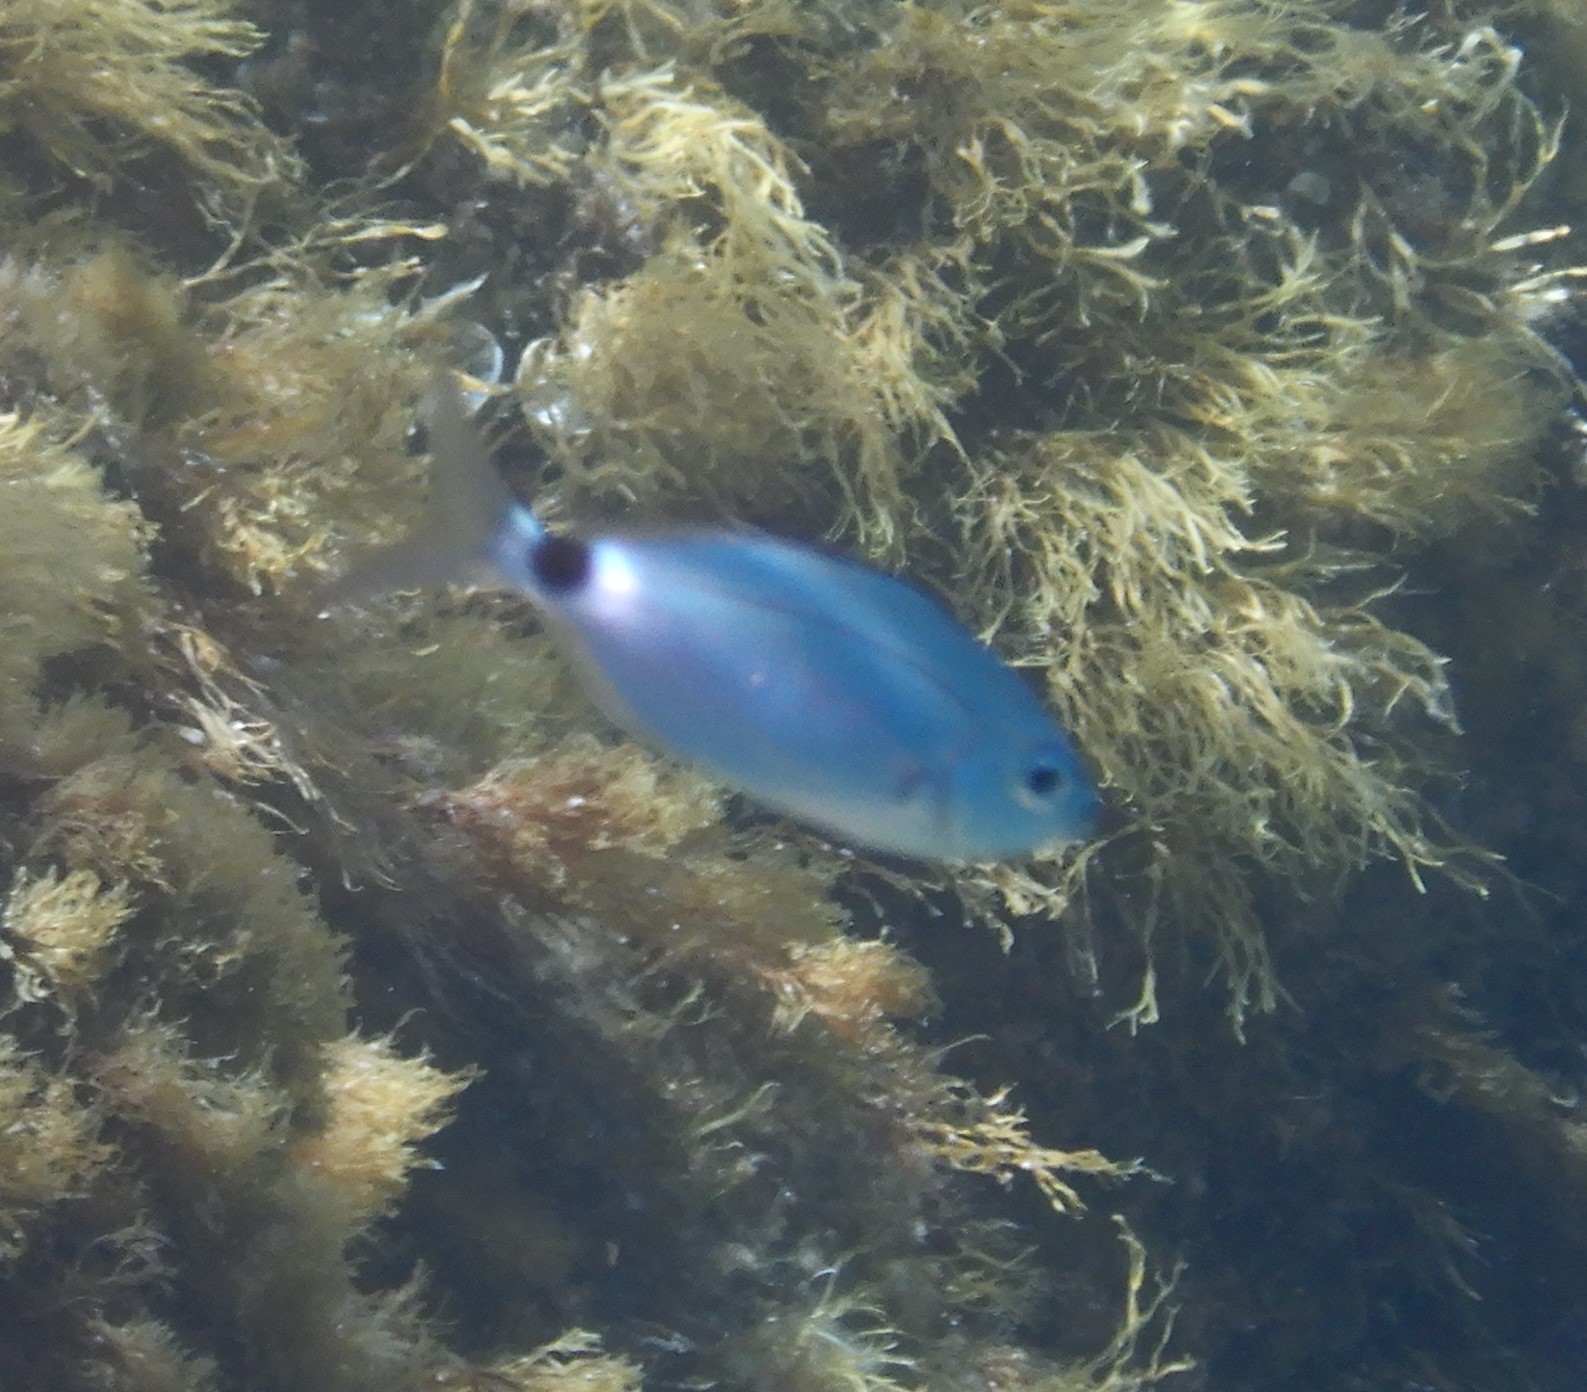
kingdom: Animalia
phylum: Chordata
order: Perciformes
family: Sparidae
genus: Oblada
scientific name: Oblada melanura
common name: Saddled seabream
